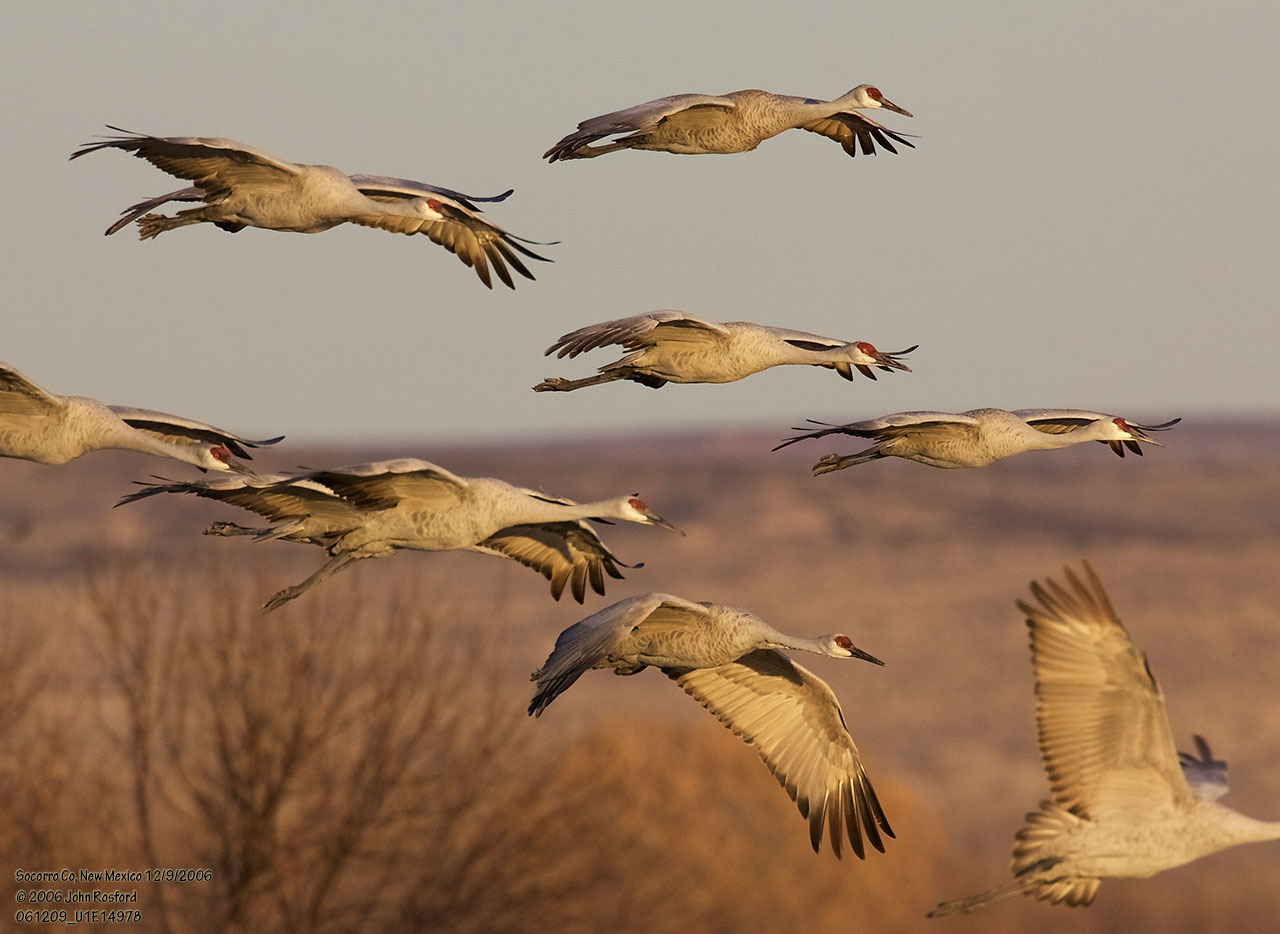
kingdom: Animalia
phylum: Chordata
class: Aves
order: Gruiformes
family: Gruidae
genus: Grus
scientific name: Grus canadensis
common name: Sandhill crane
